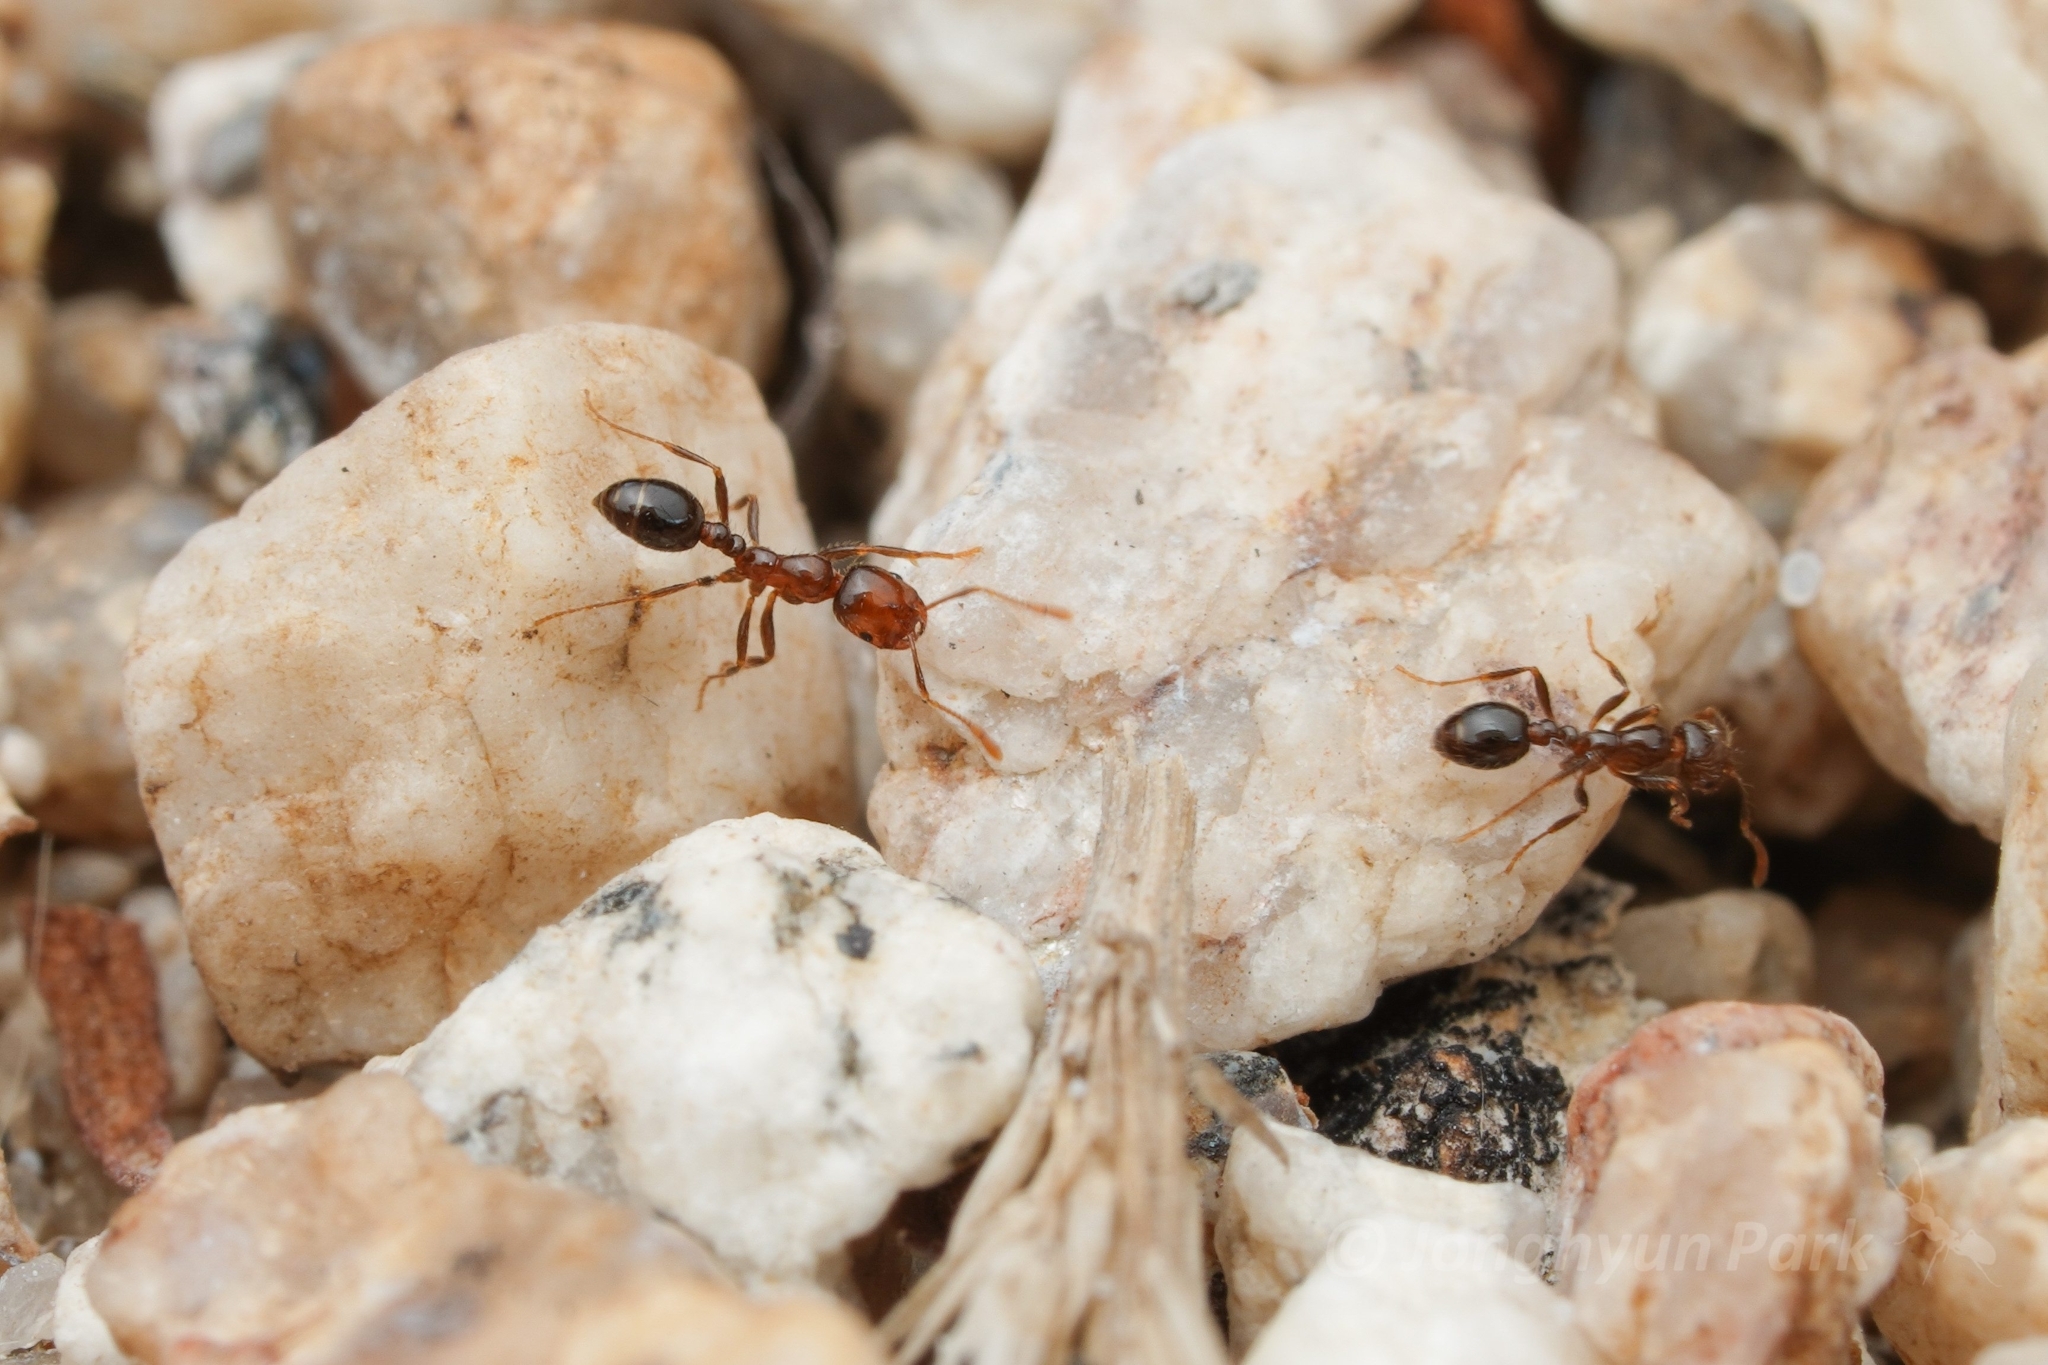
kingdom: Animalia
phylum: Arthropoda
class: Insecta
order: Hymenoptera
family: Formicidae
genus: Solenopsis
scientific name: Solenopsis xyloni
